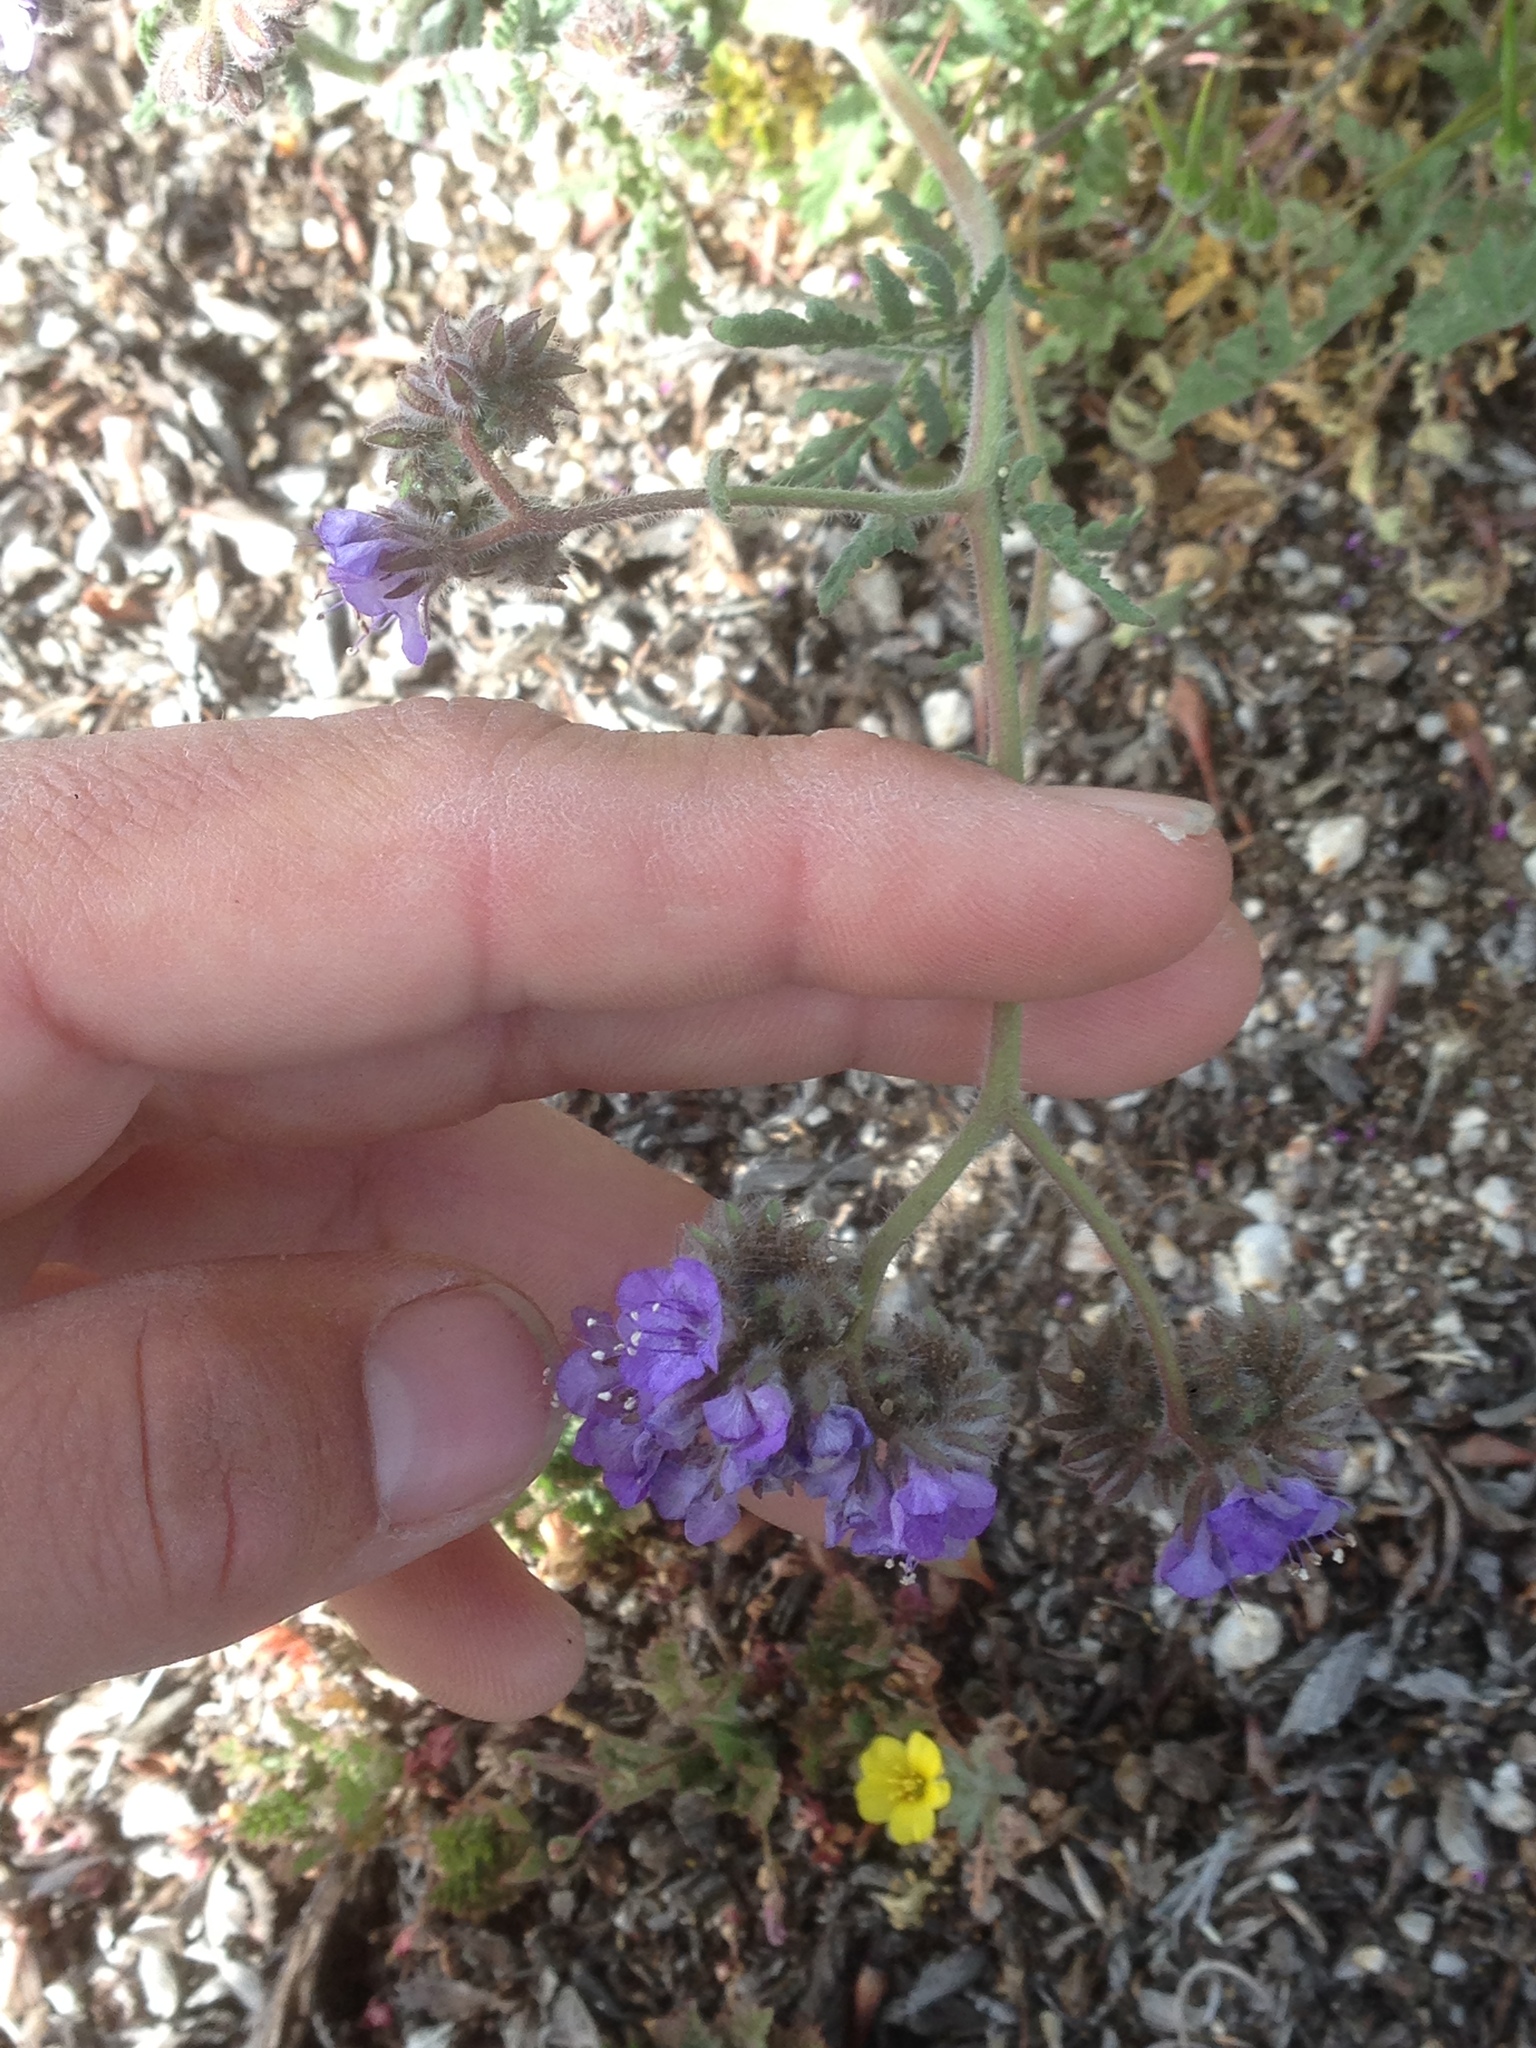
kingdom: Plantae
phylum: Tracheophyta
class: Magnoliopsida
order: Boraginales
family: Hydrophyllaceae
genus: Phacelia
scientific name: Phacelia distans
